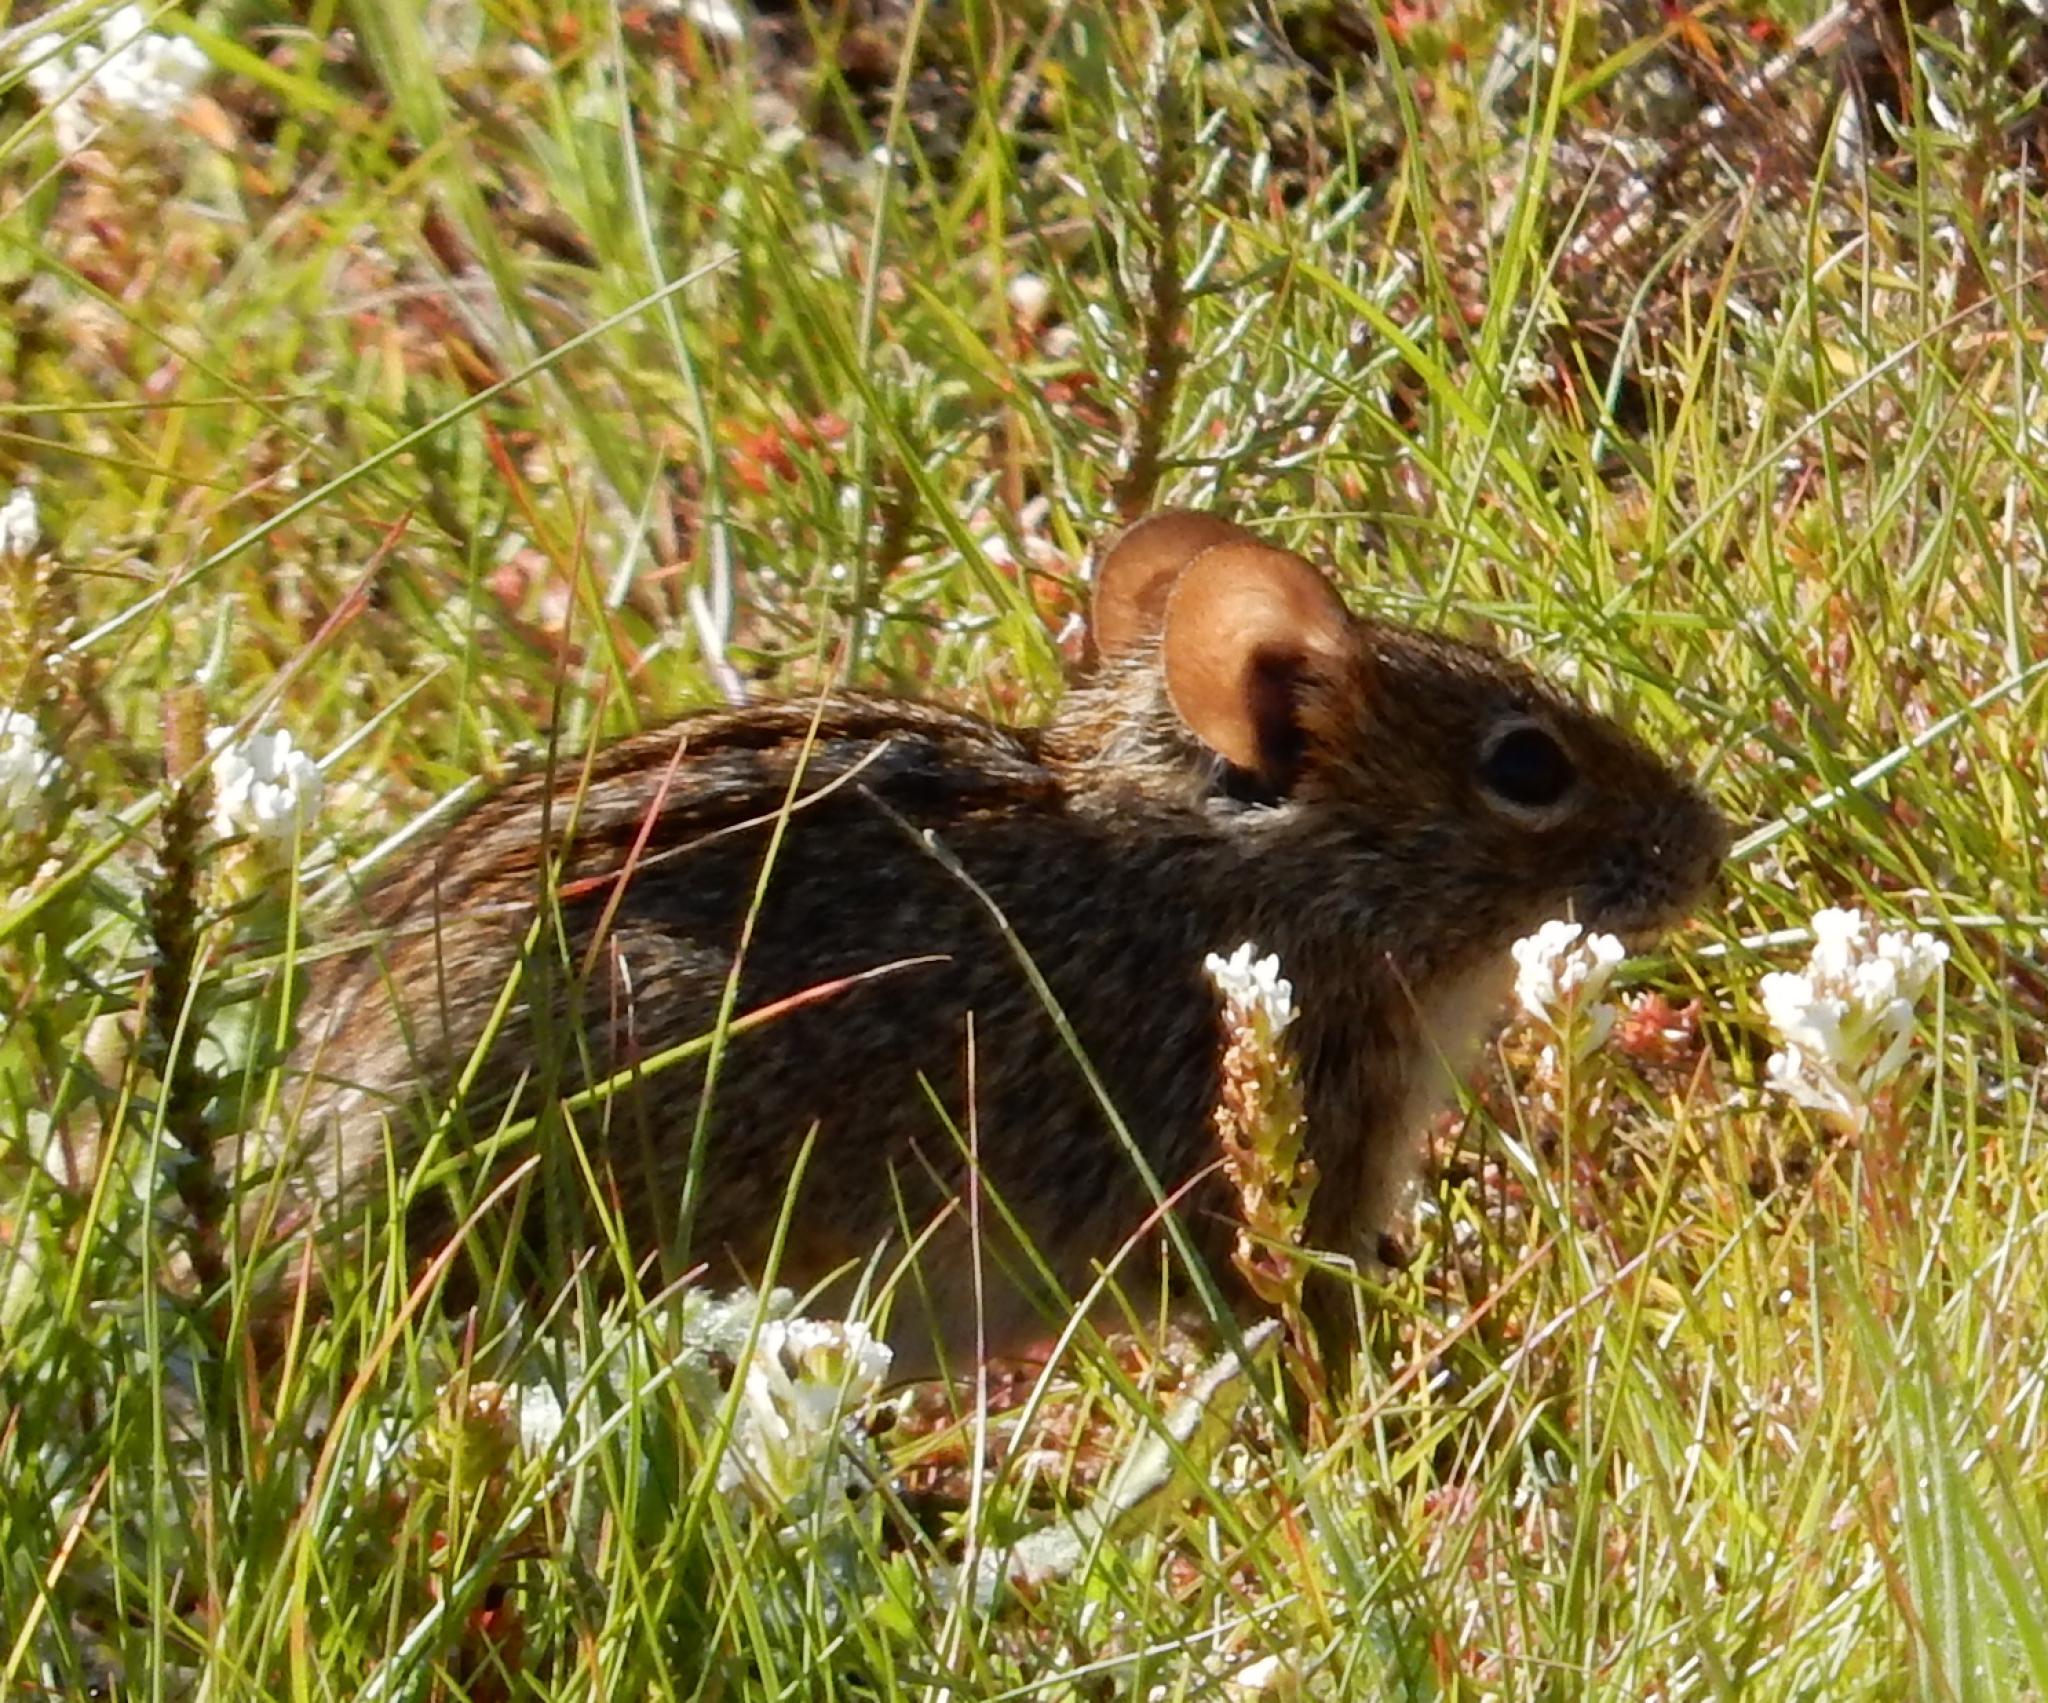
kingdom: Animalia
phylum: Chordata
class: Mammalia
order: Rodentia
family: Muridae
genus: Rhabdomys
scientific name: Rhabdomys pumilio
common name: Xeric four-striped grass rat
